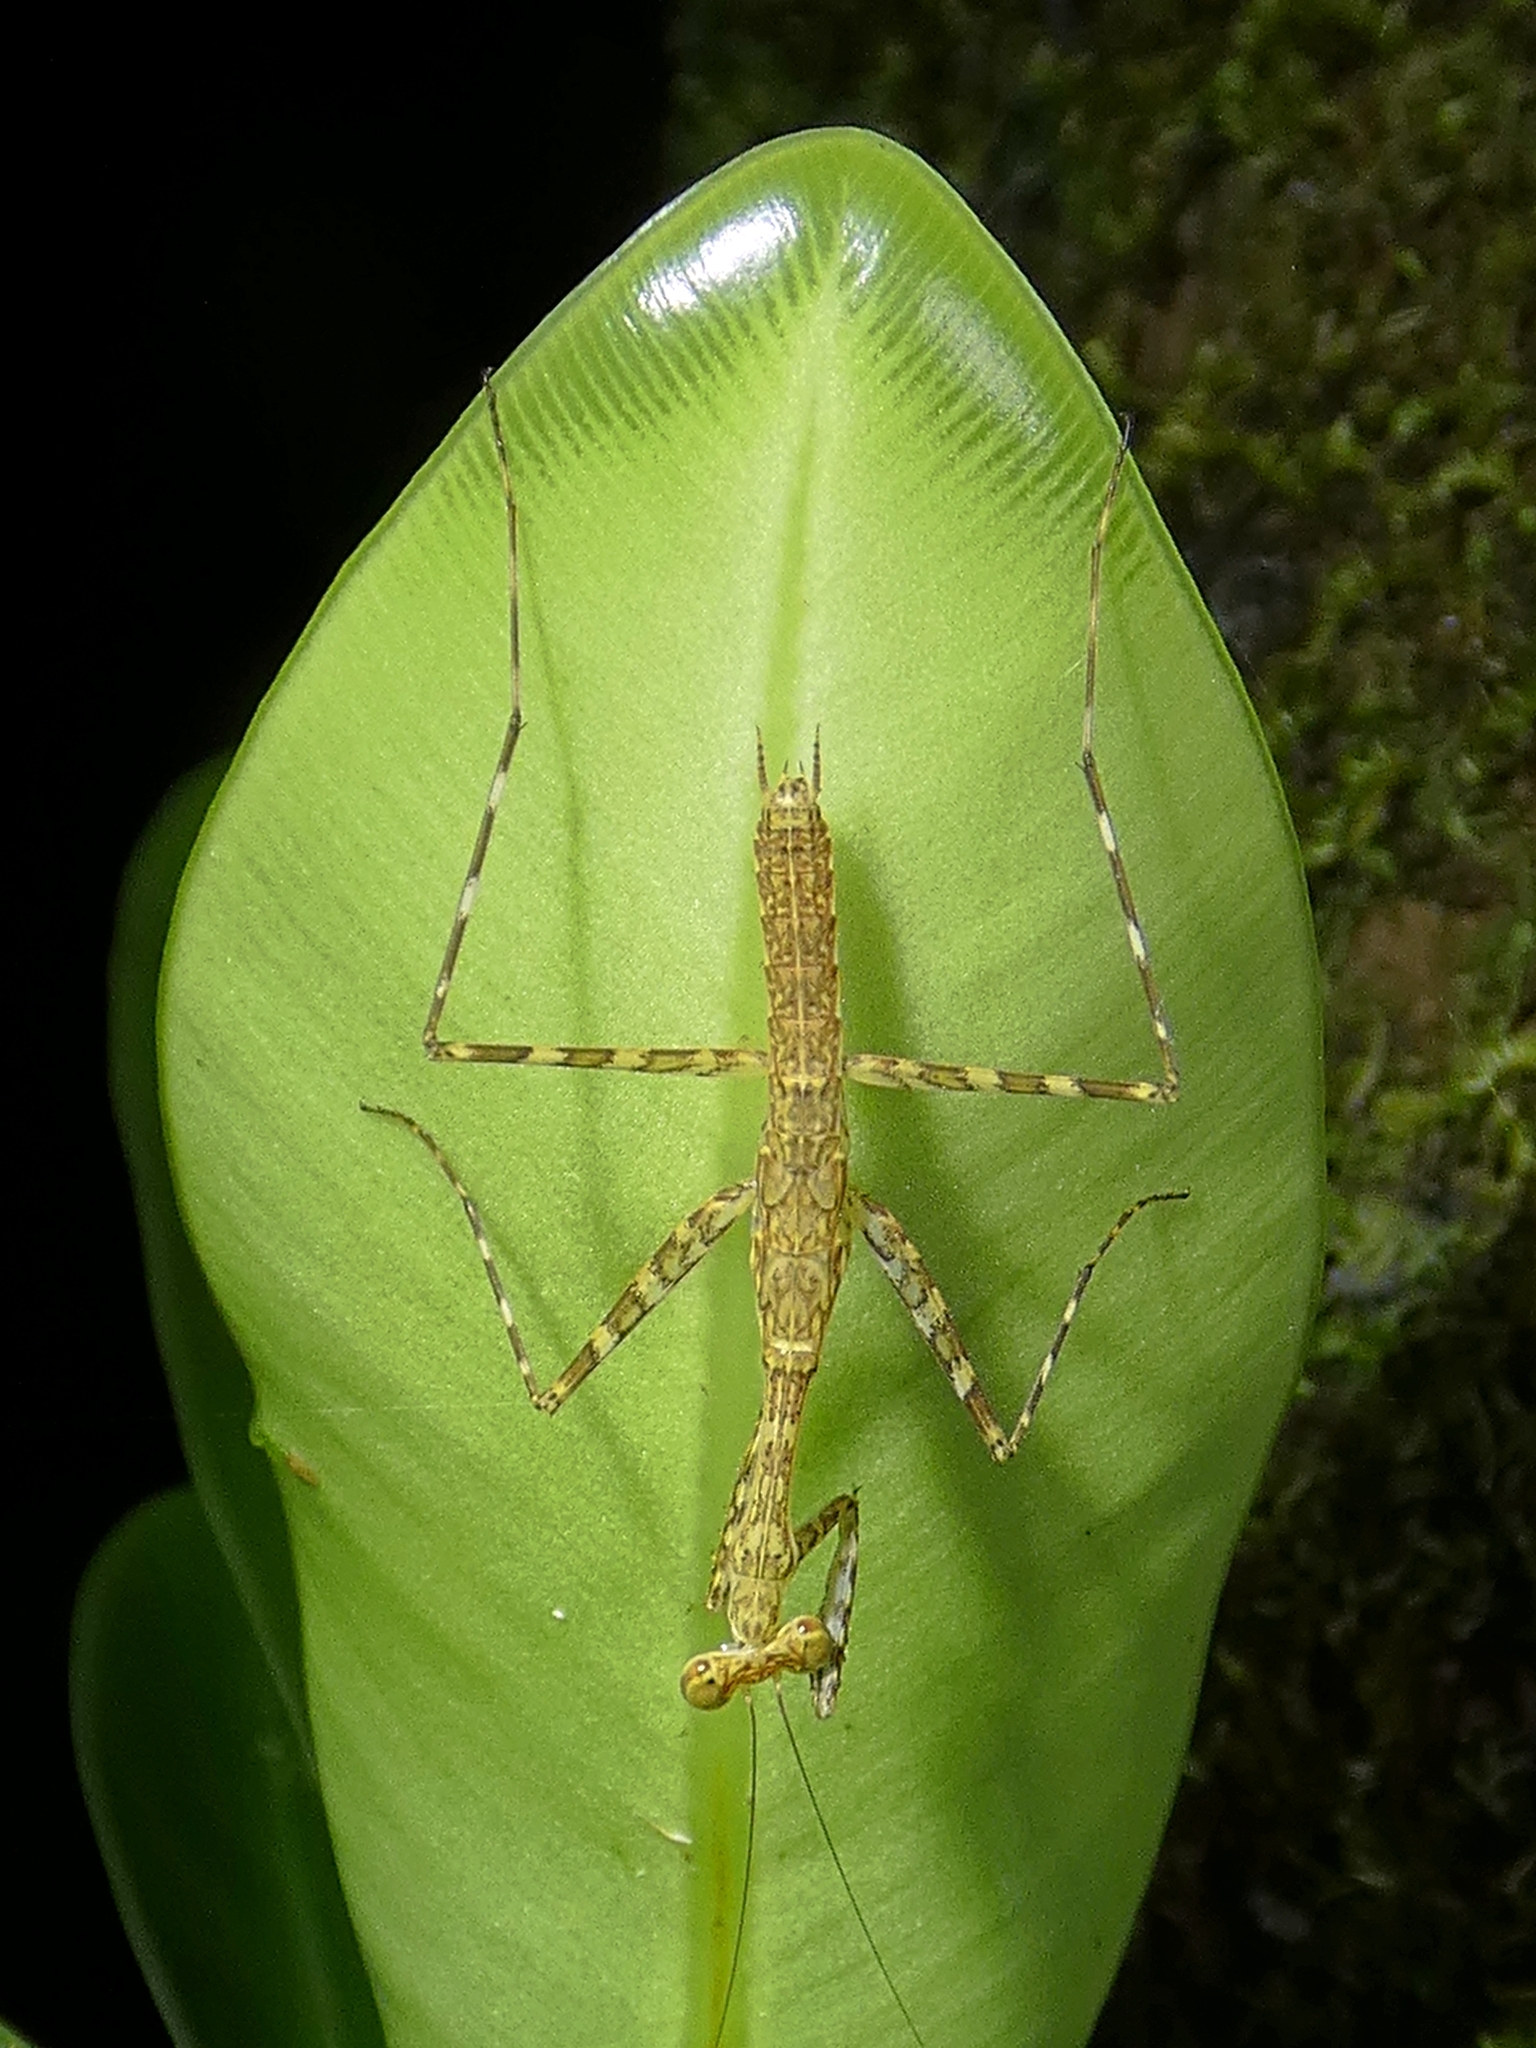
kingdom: Animalia
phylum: Arthropoda
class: Insecta
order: Mantodea
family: Nanomantidae
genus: Ciulfina
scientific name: Ciulfina rentzi
